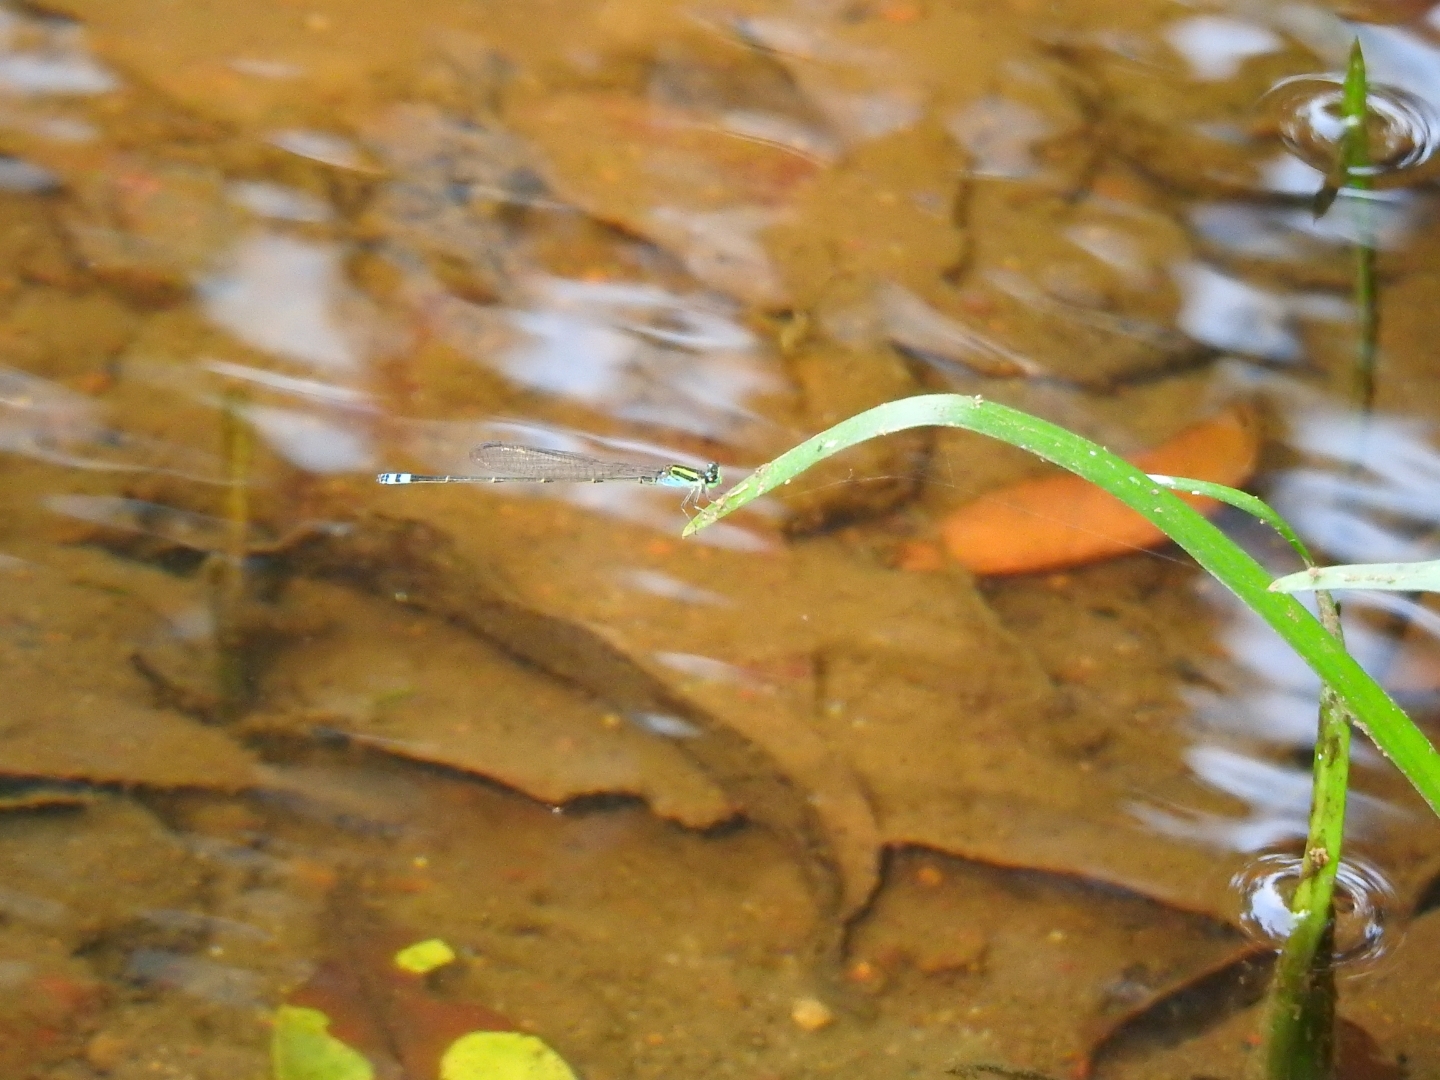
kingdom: Animalia
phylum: Arthropoda
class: Insecta
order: Odonata
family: Coenagrionidae
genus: Pseudagrion
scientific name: Pseudagrion indicum
